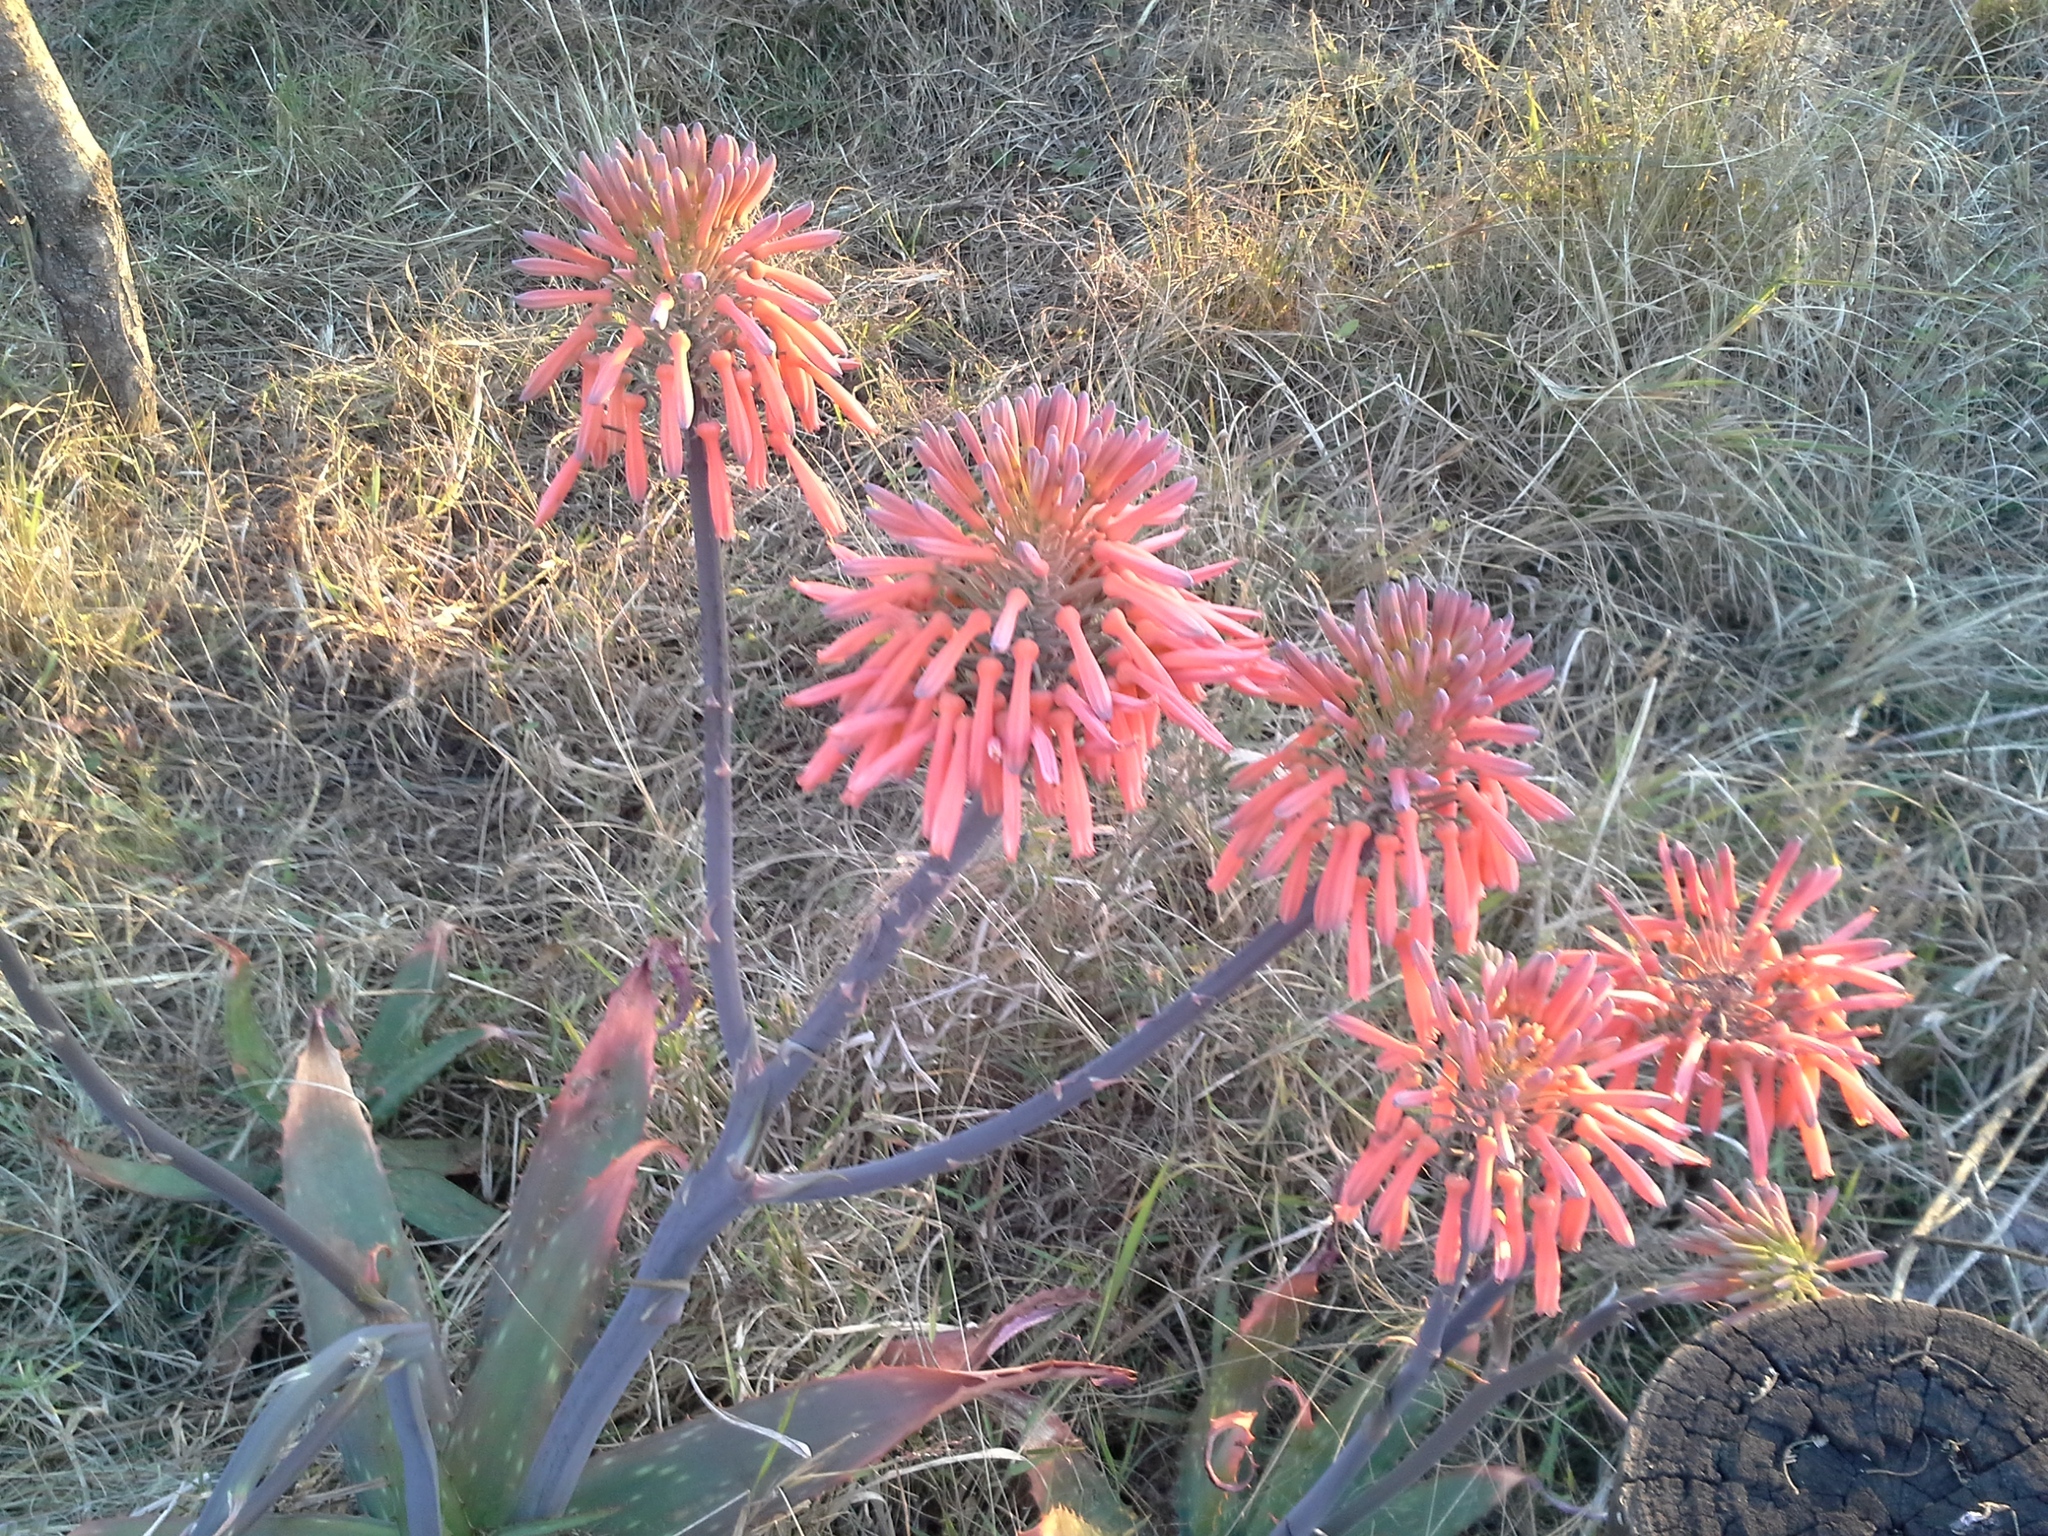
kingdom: Plantae
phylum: Tracheophyta
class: Liliopsida
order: Asparagales
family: Asphodelaceae
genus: Aloe
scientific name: Aloe maculata
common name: Broadleaf aloe
